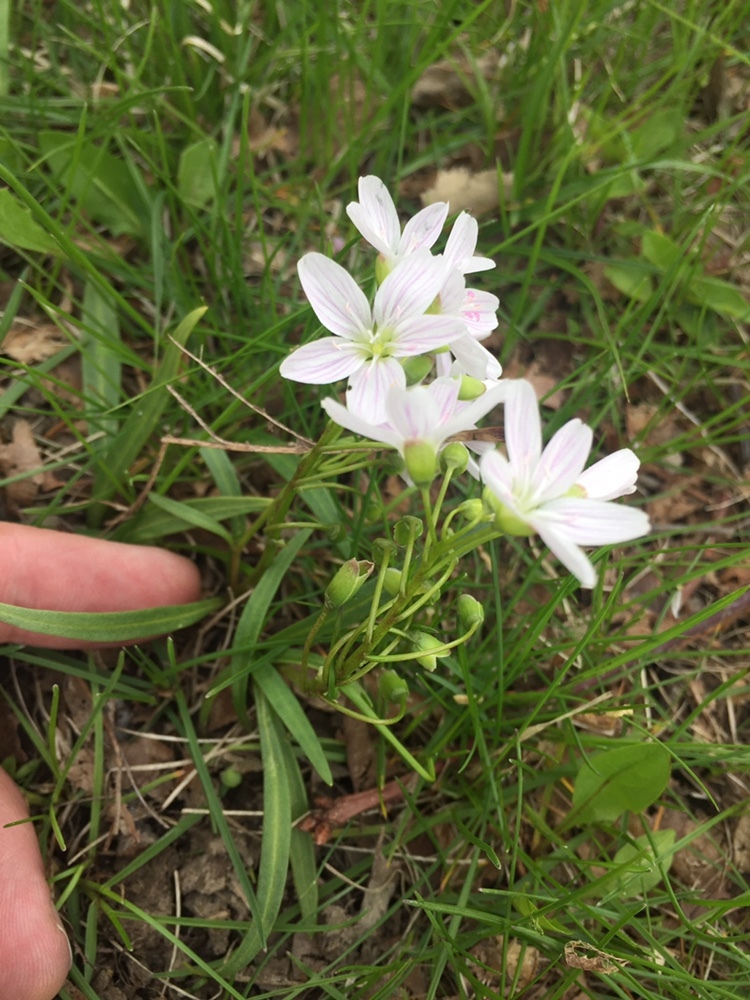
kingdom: Plantae
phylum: Tracheophyta
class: Magnoliopsida
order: Caryophyllales
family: Montiaceae
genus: Claytonia
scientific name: Claytonia virginica
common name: Virginia springbeauty
